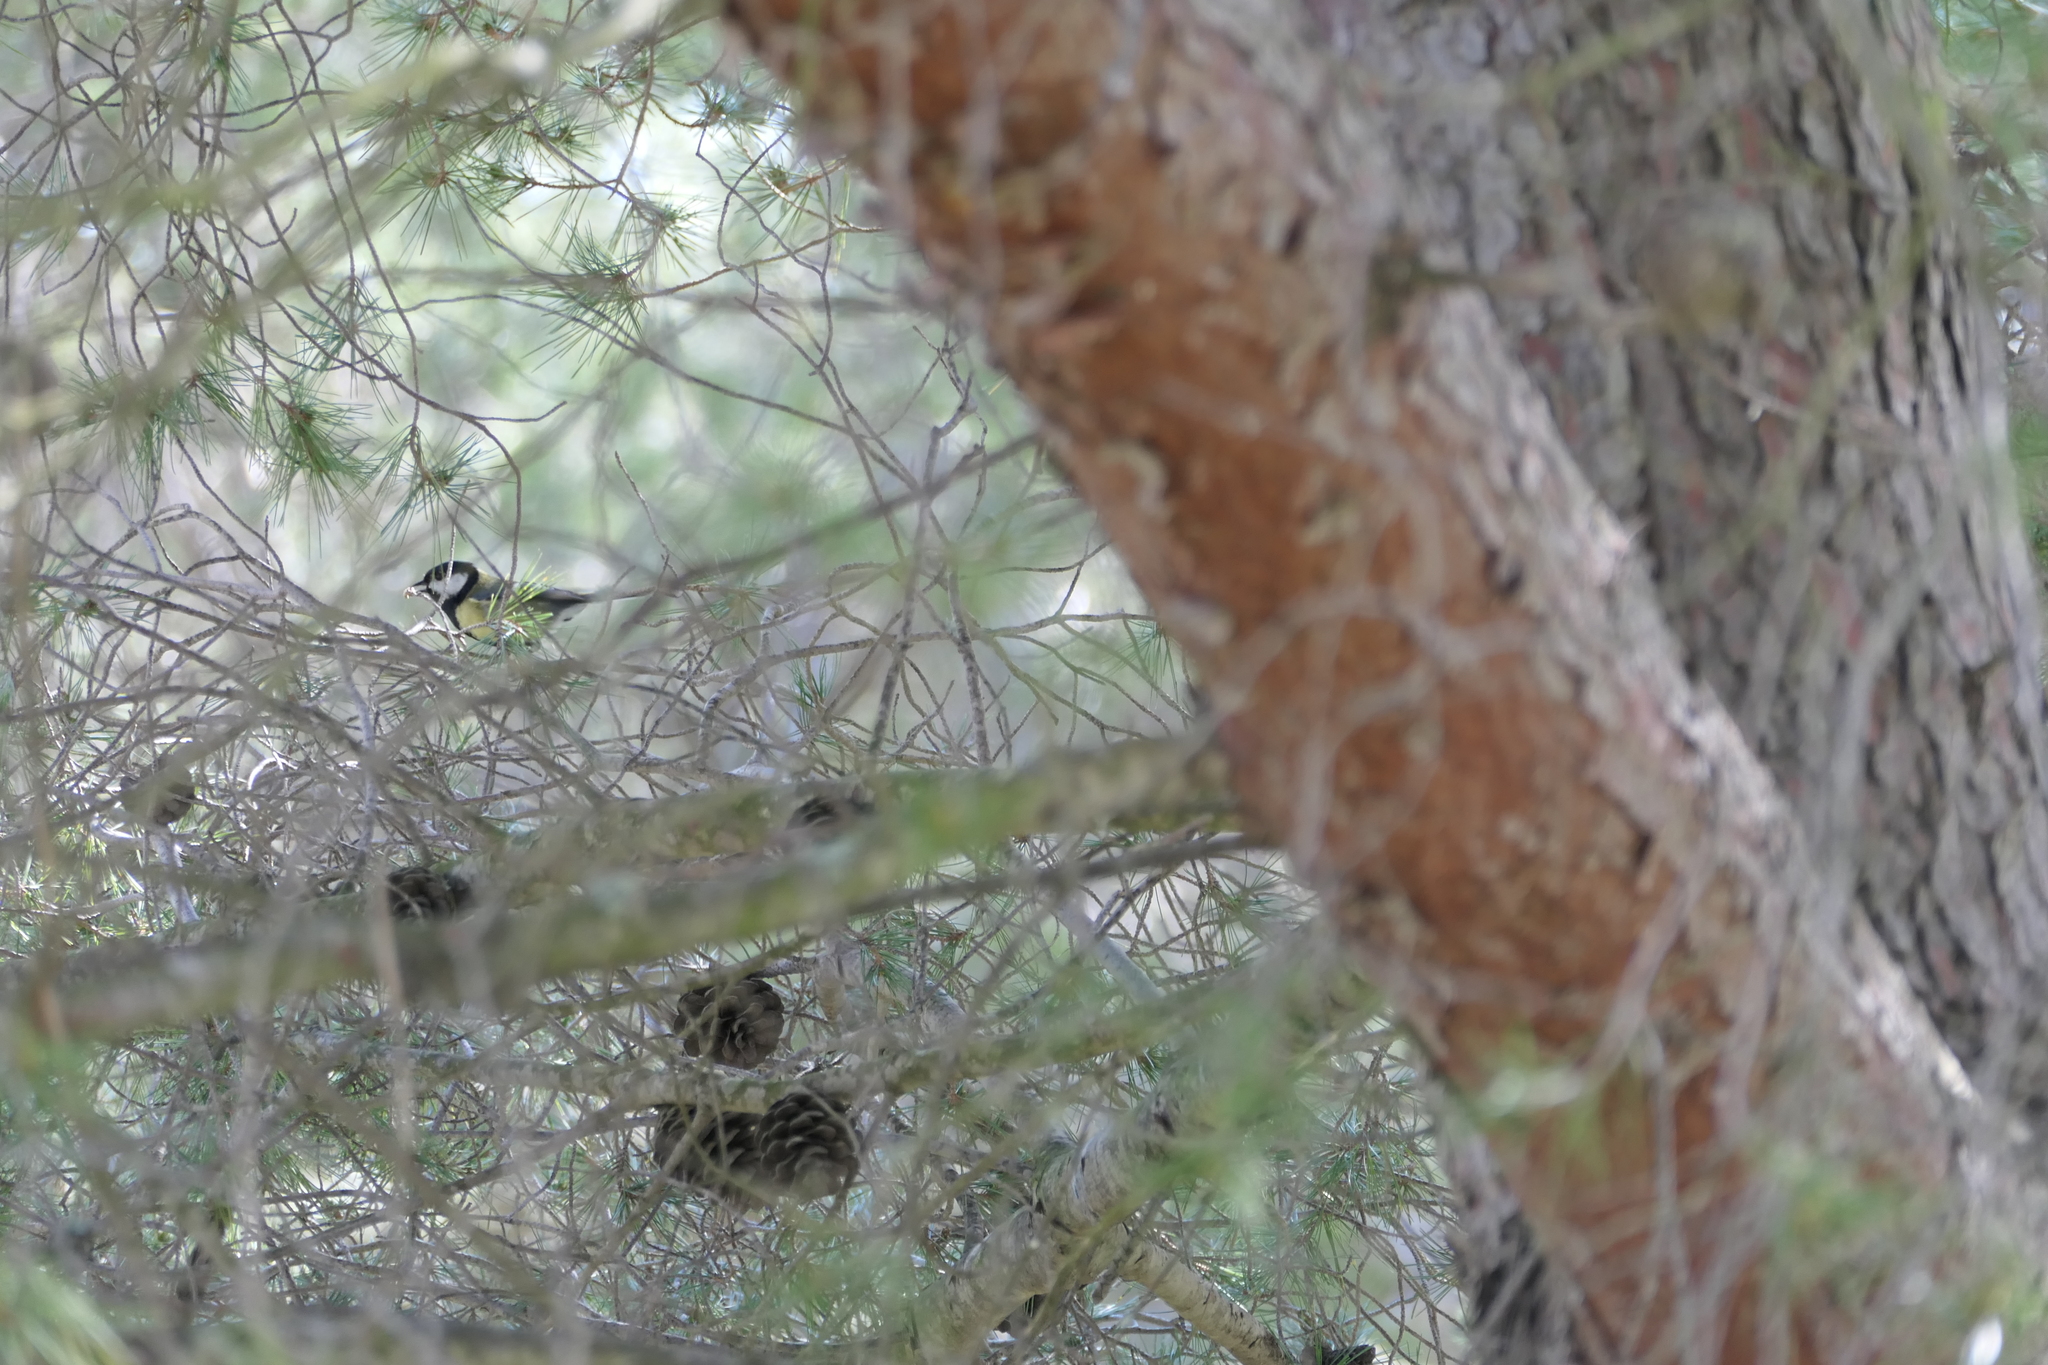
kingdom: Animalia
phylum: Chordata
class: Aves
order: Passeriformes
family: Paridae
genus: Parus
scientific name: Parus major
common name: Great tit
